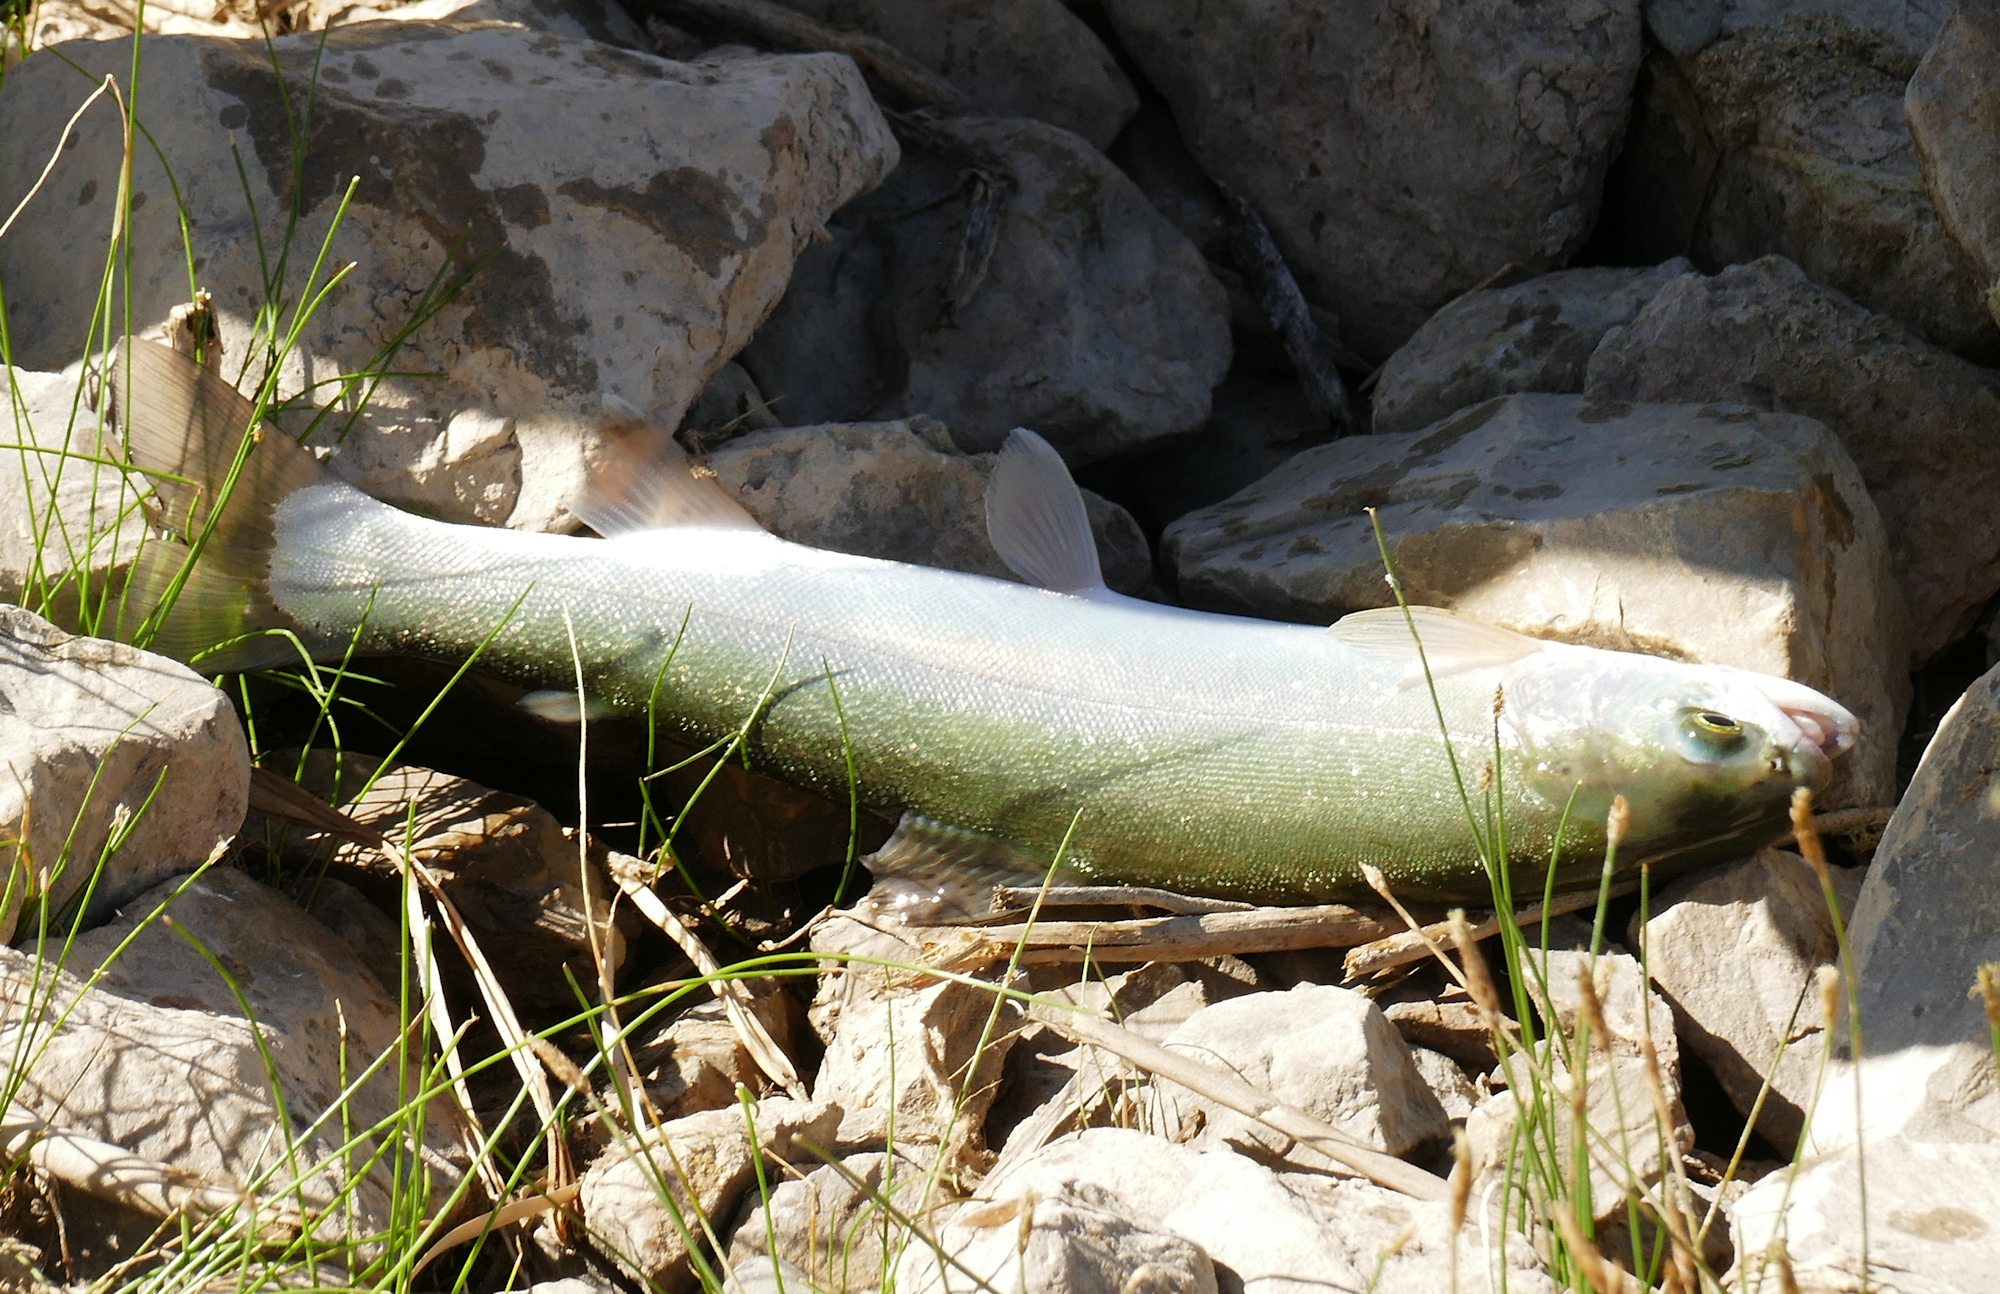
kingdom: Animalia
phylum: Chordata
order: Salmoniformes
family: Salmonidae
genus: Oncorhynchus
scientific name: Oncorhynchus mykiss
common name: Rainbow trout
